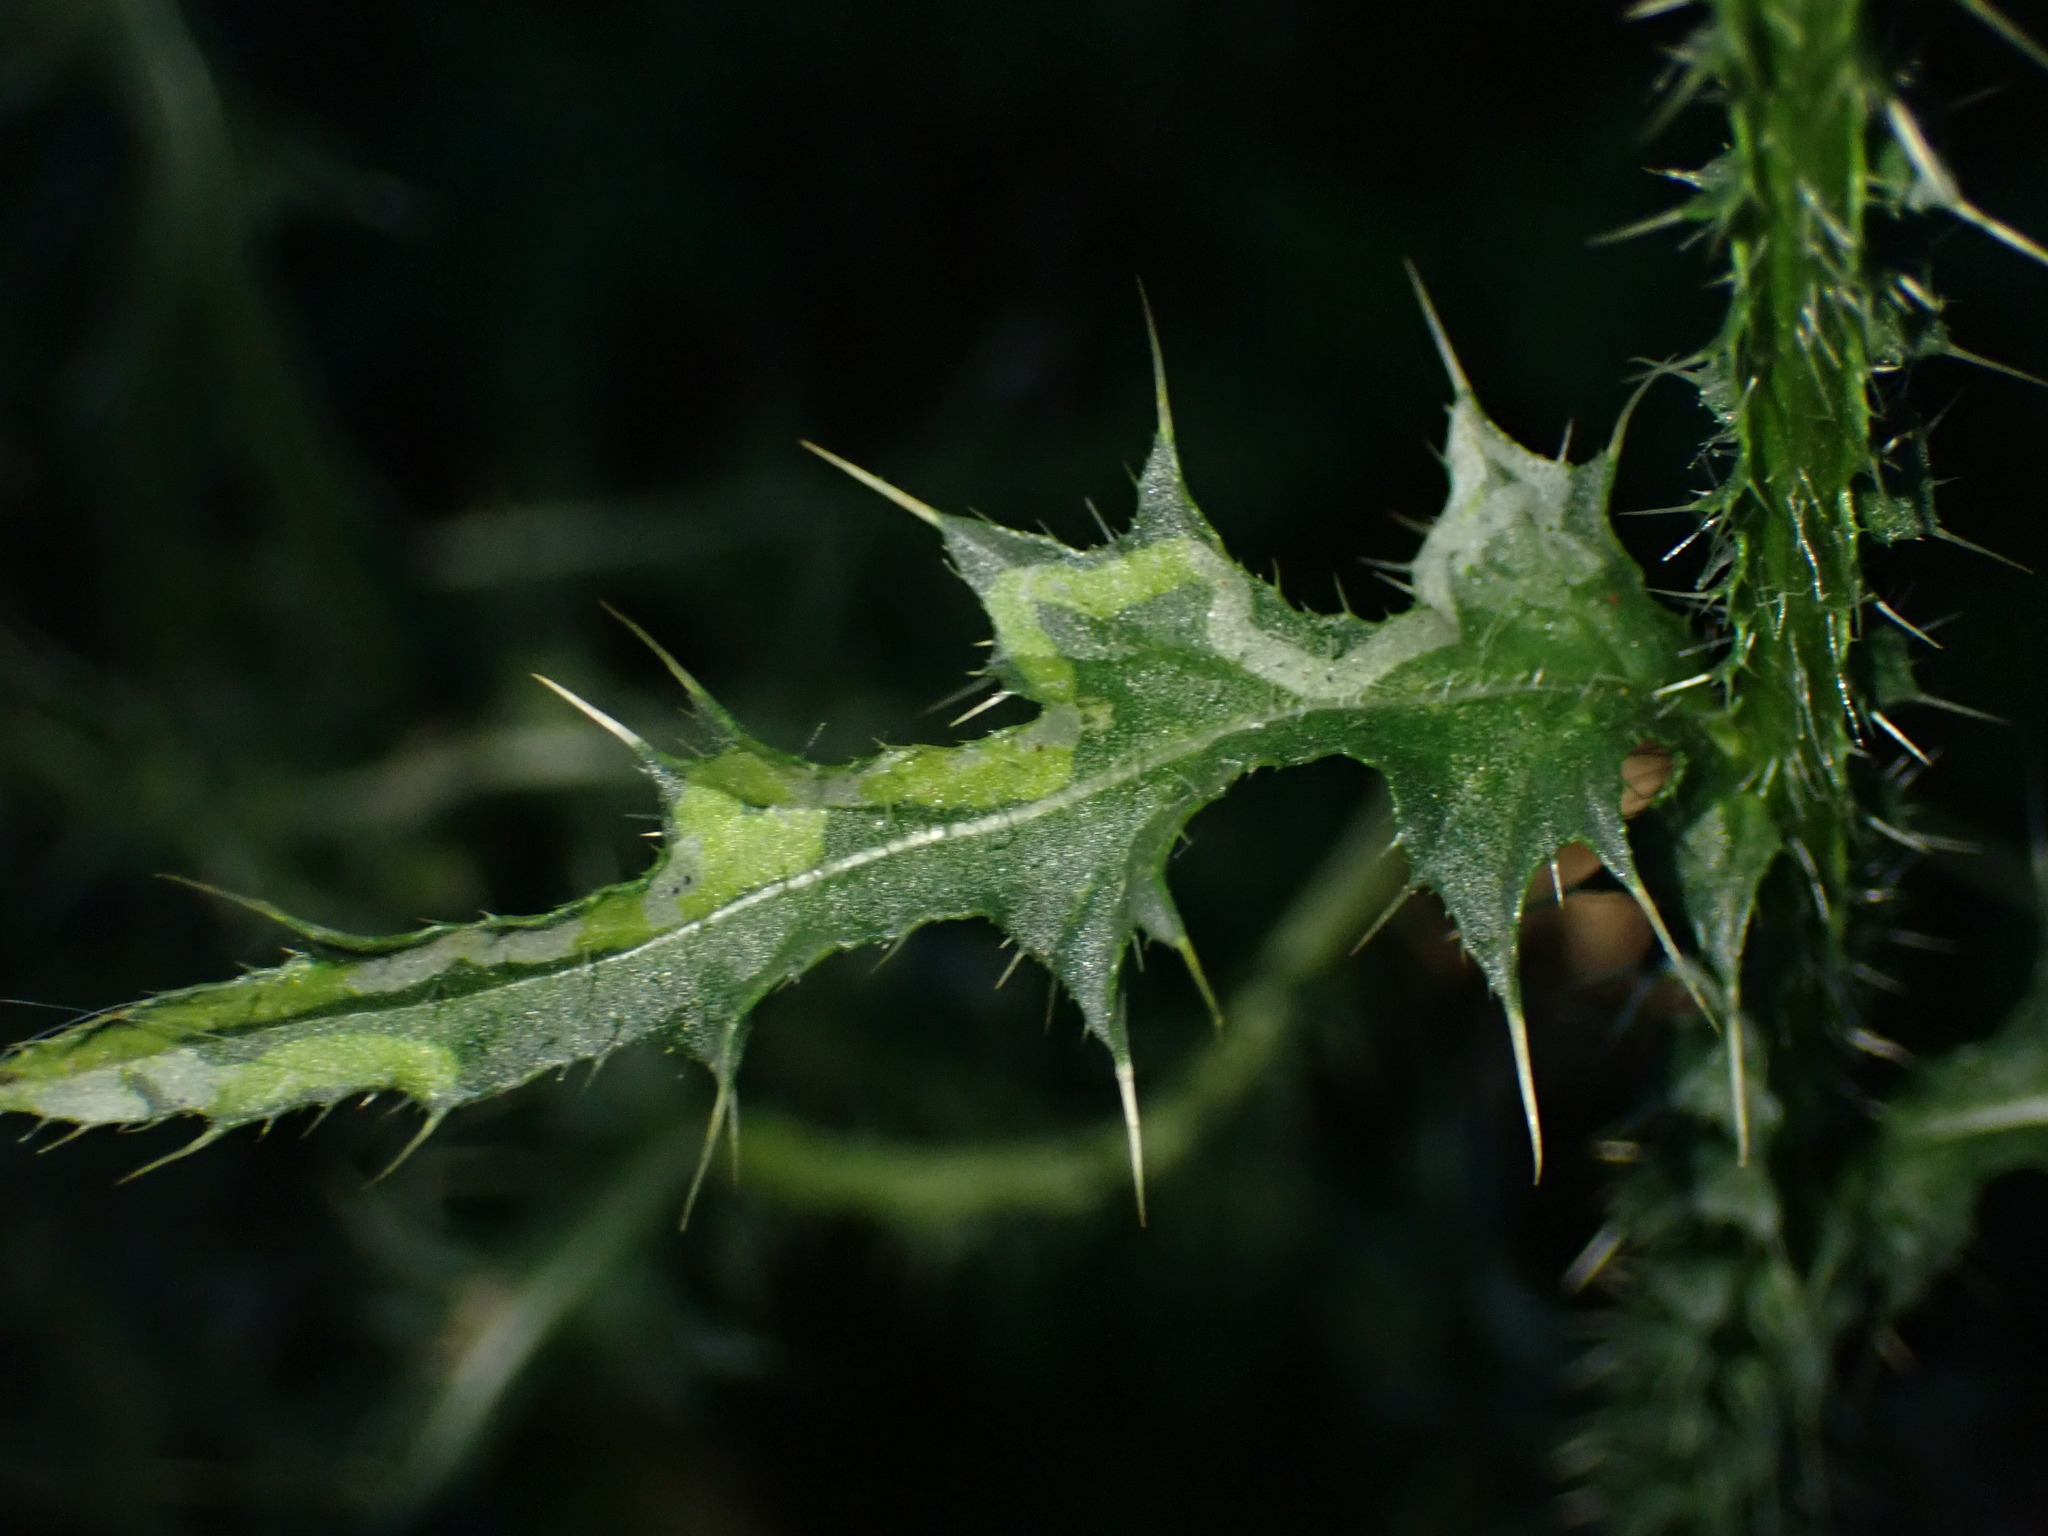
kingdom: Animalia
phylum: Arthropoda
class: Insecta
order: Diptera
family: Agromyzidae
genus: Phytomyza
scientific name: Phytomyza spinaciae
